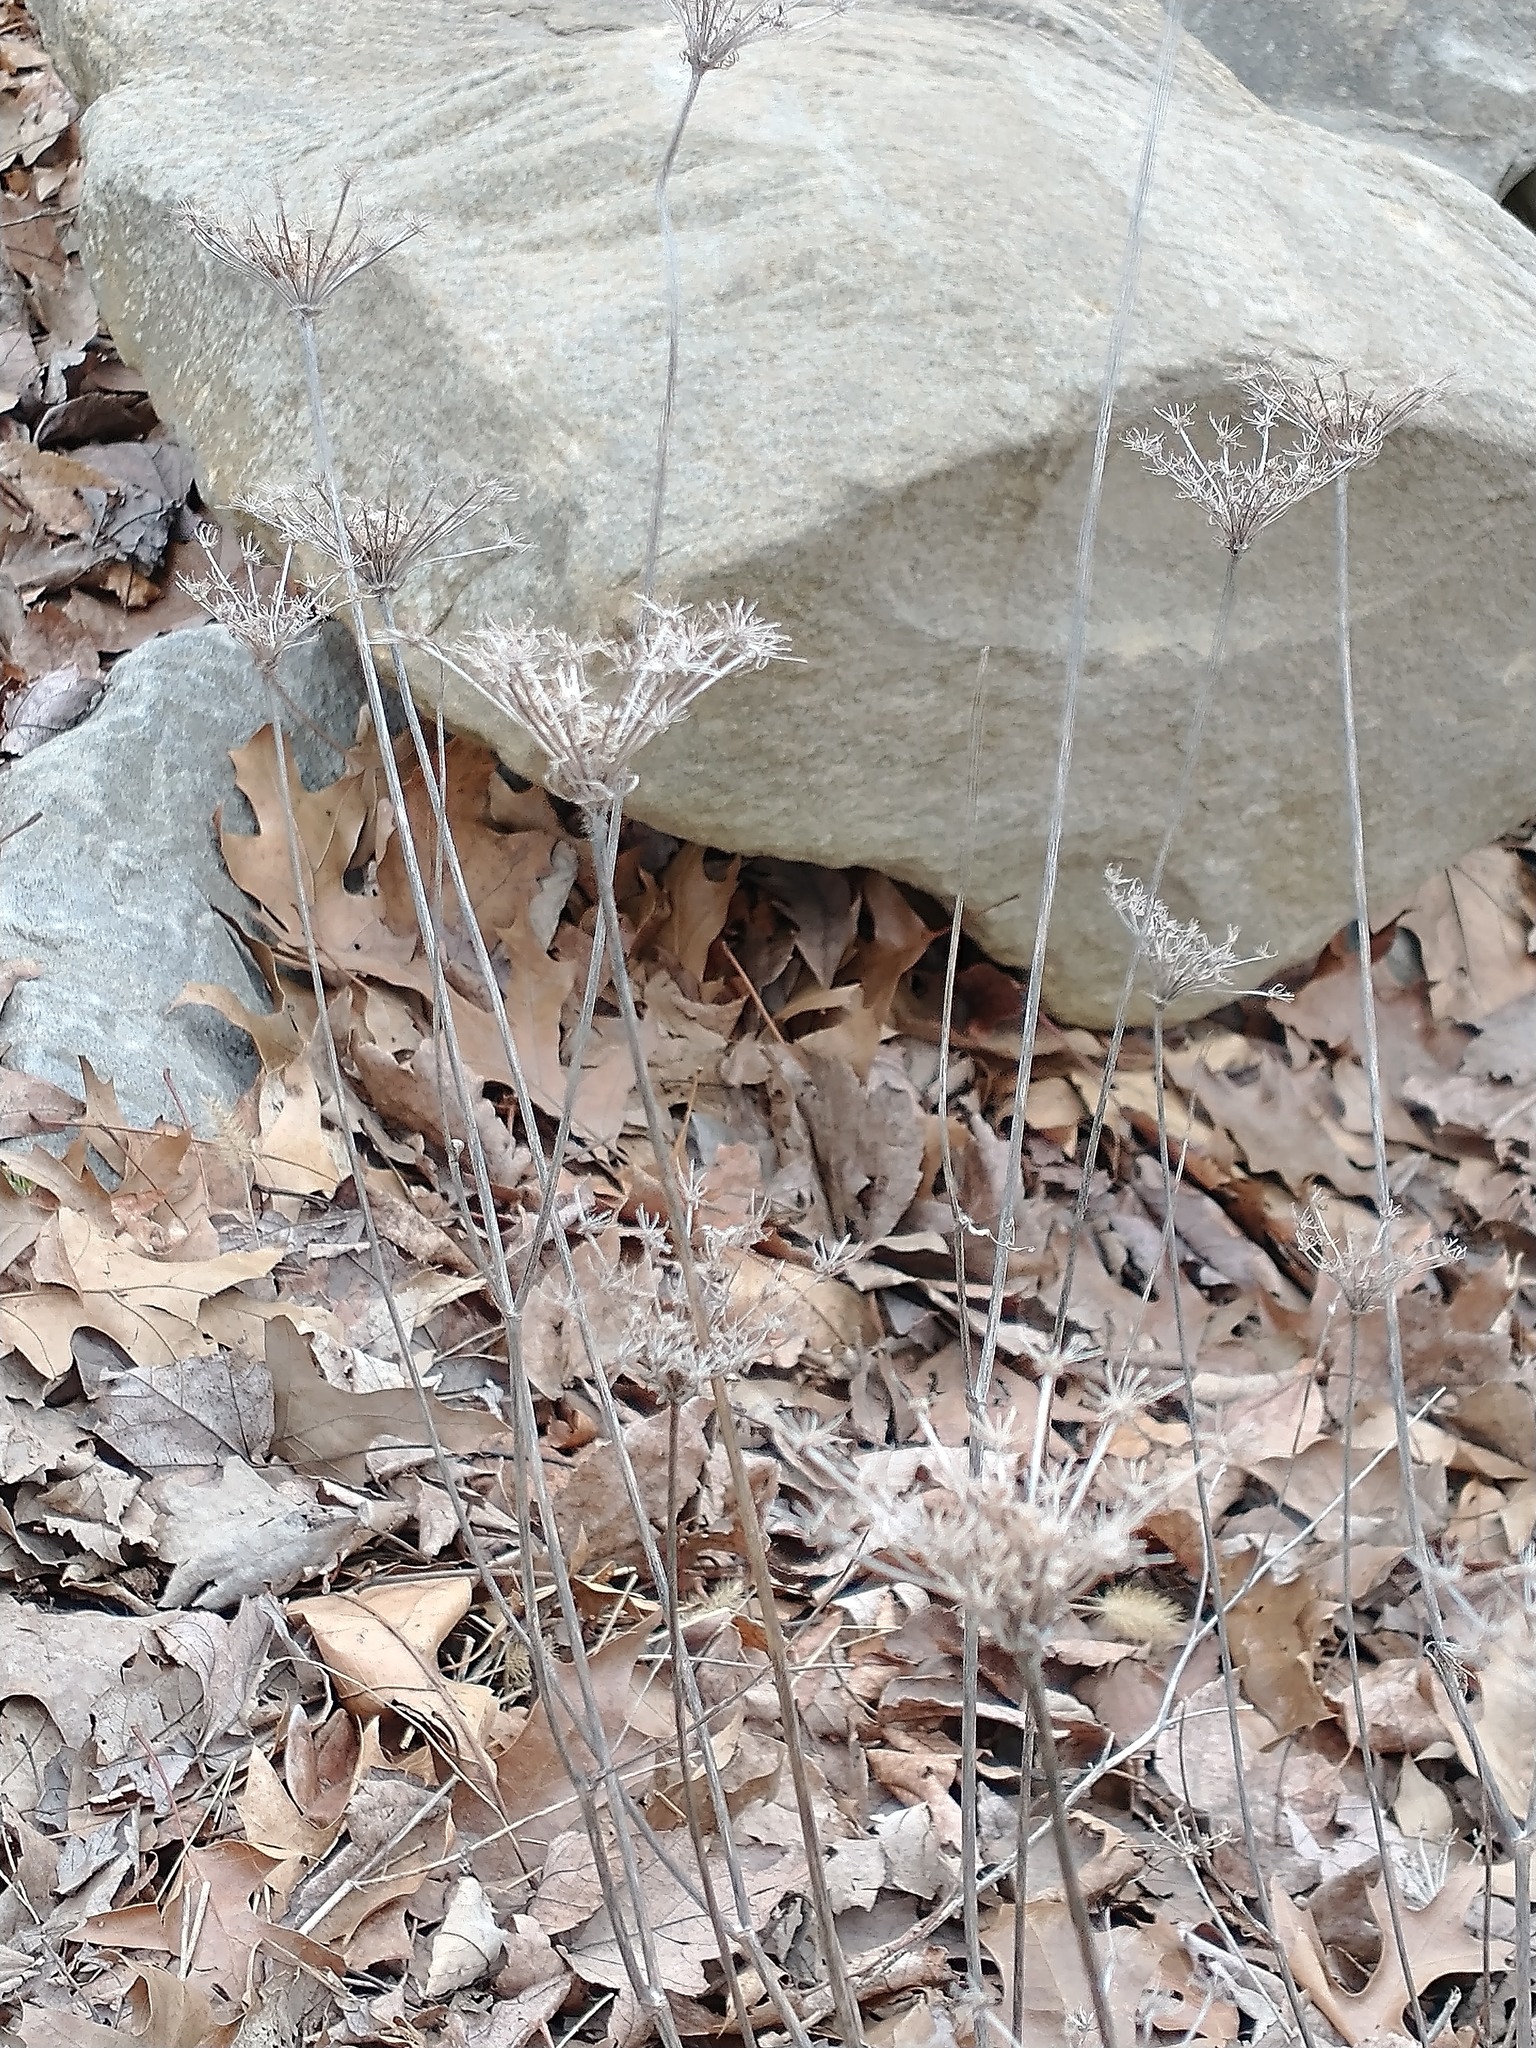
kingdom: Plantae
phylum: Tracheophyta
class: Magnoliopsida
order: Apiales
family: Apiaceae
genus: Daucus
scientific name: Daucus carota
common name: Wild carrot
